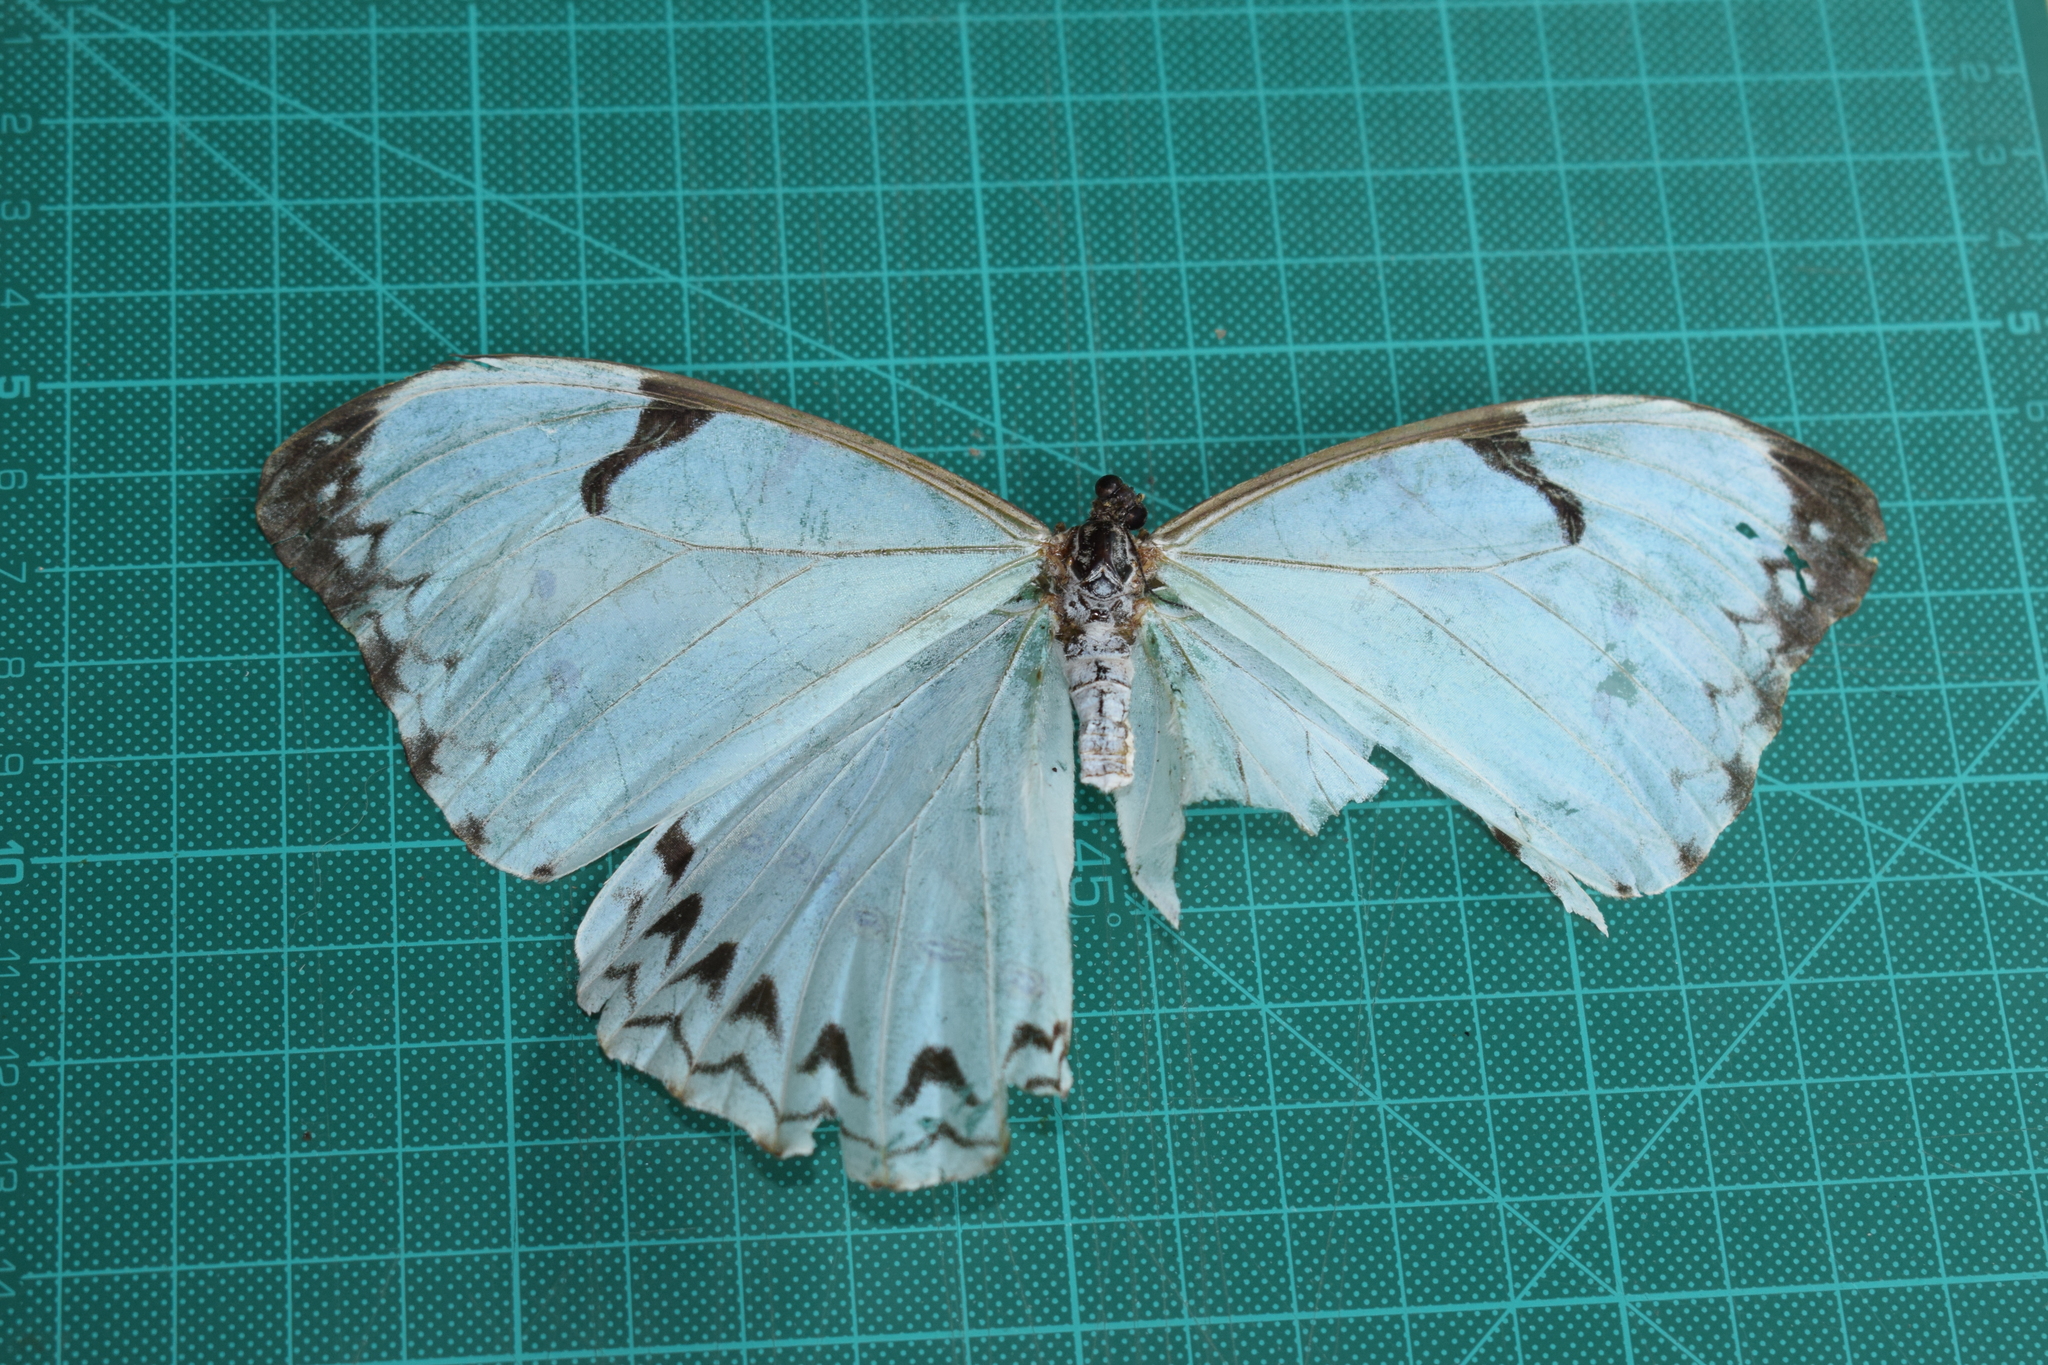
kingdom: Animalia
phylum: Arthropoda
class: Insecta
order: Lepidoptera
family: Nymphalidae
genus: Morpho
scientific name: Morpho epistrophus
